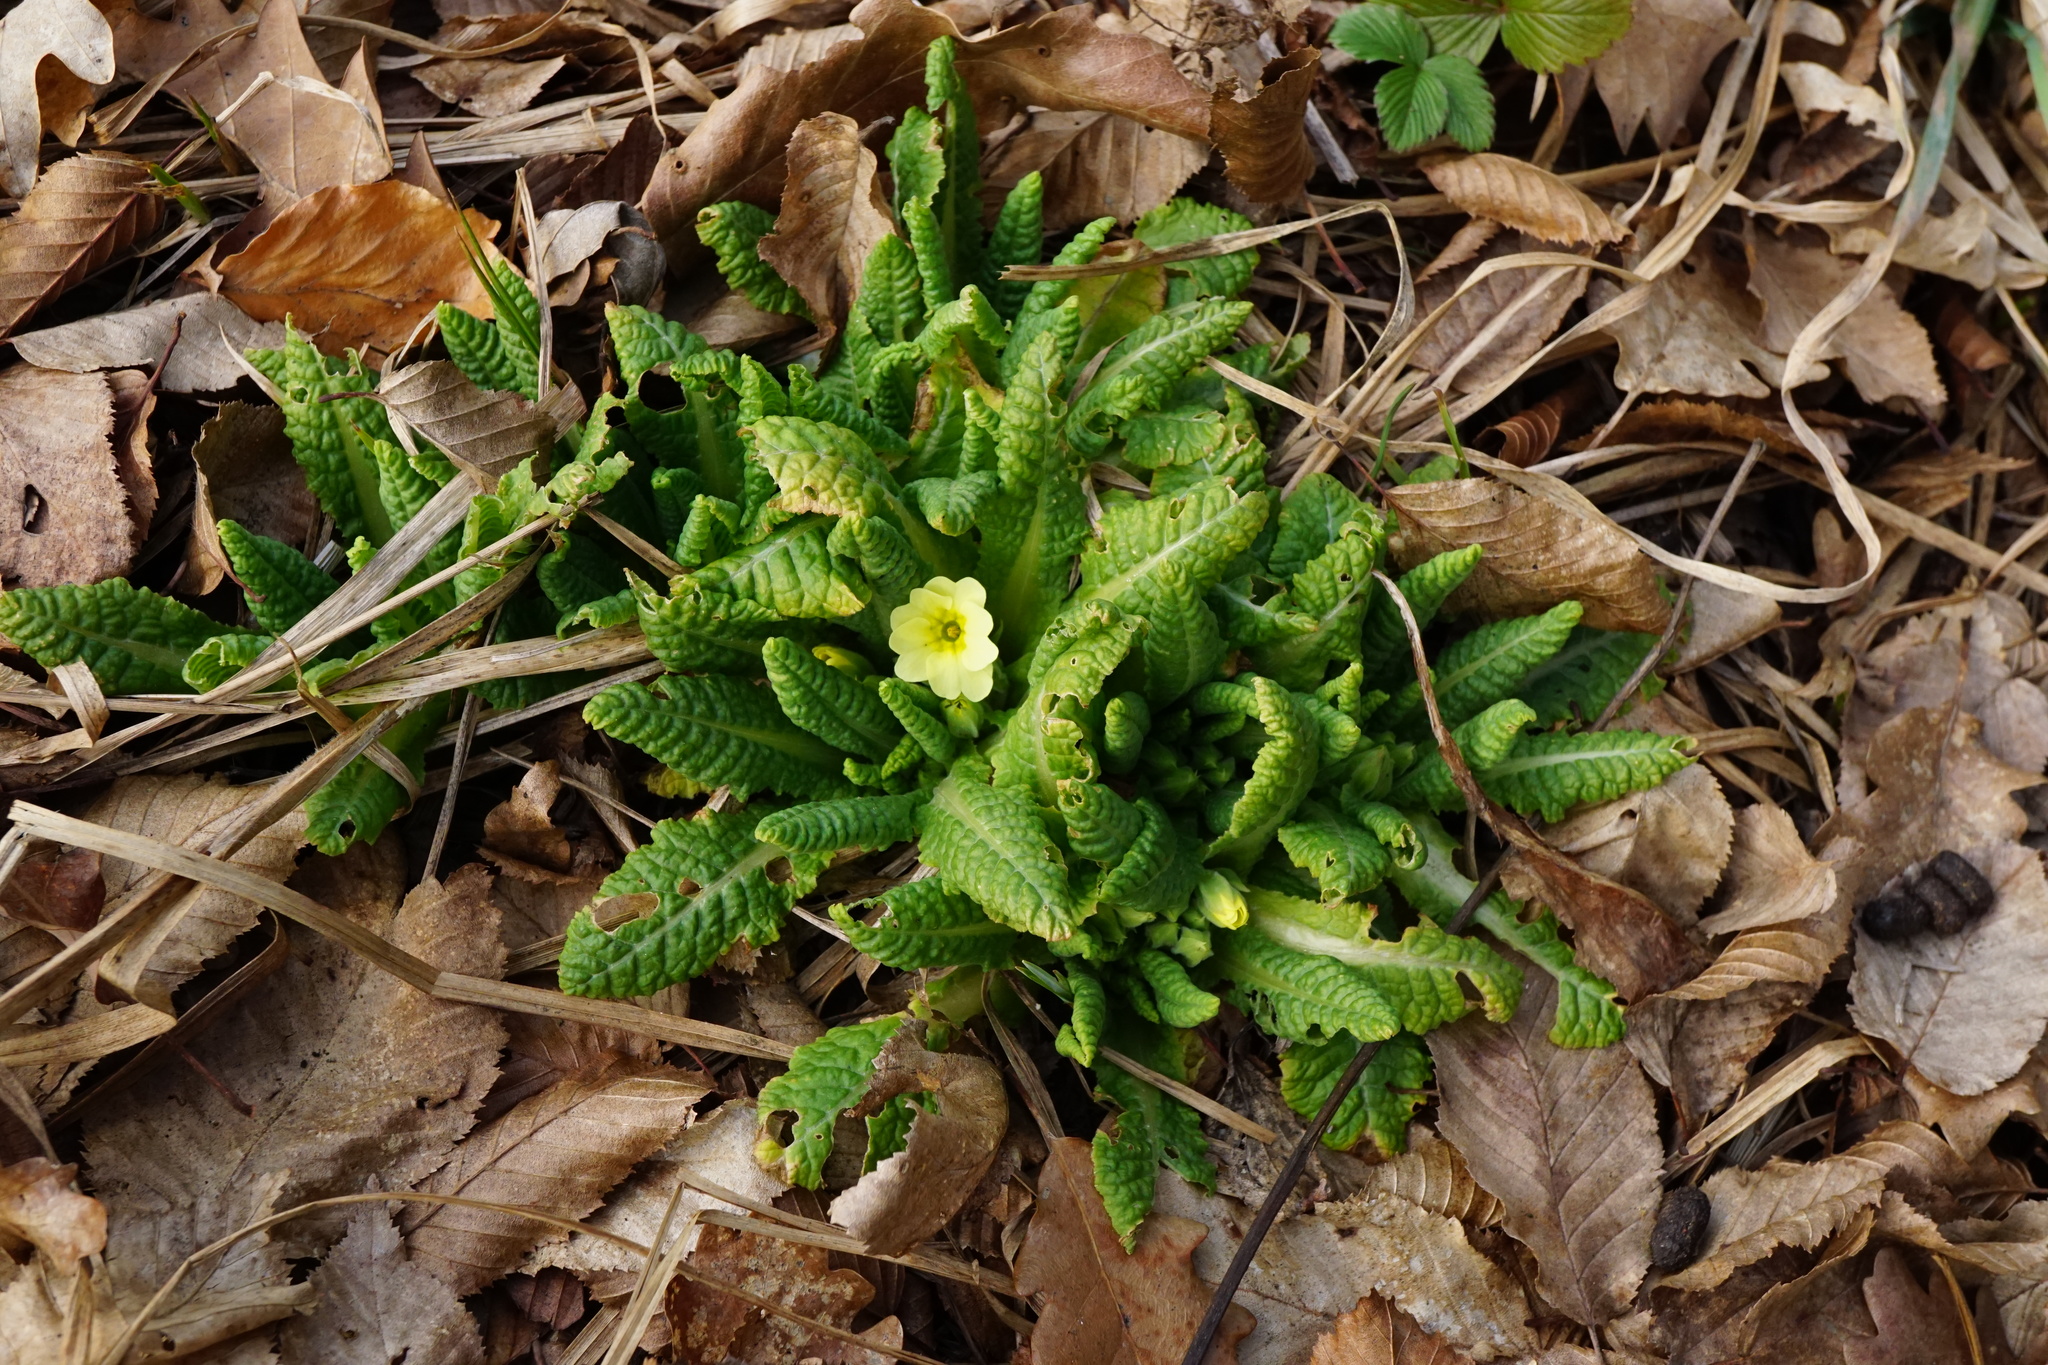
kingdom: Plantae
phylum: Tracheophyta
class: Magnoliopsida
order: Ericales
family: Primulaceae
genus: Primula
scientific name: Primula vulgaris
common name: Primrose
